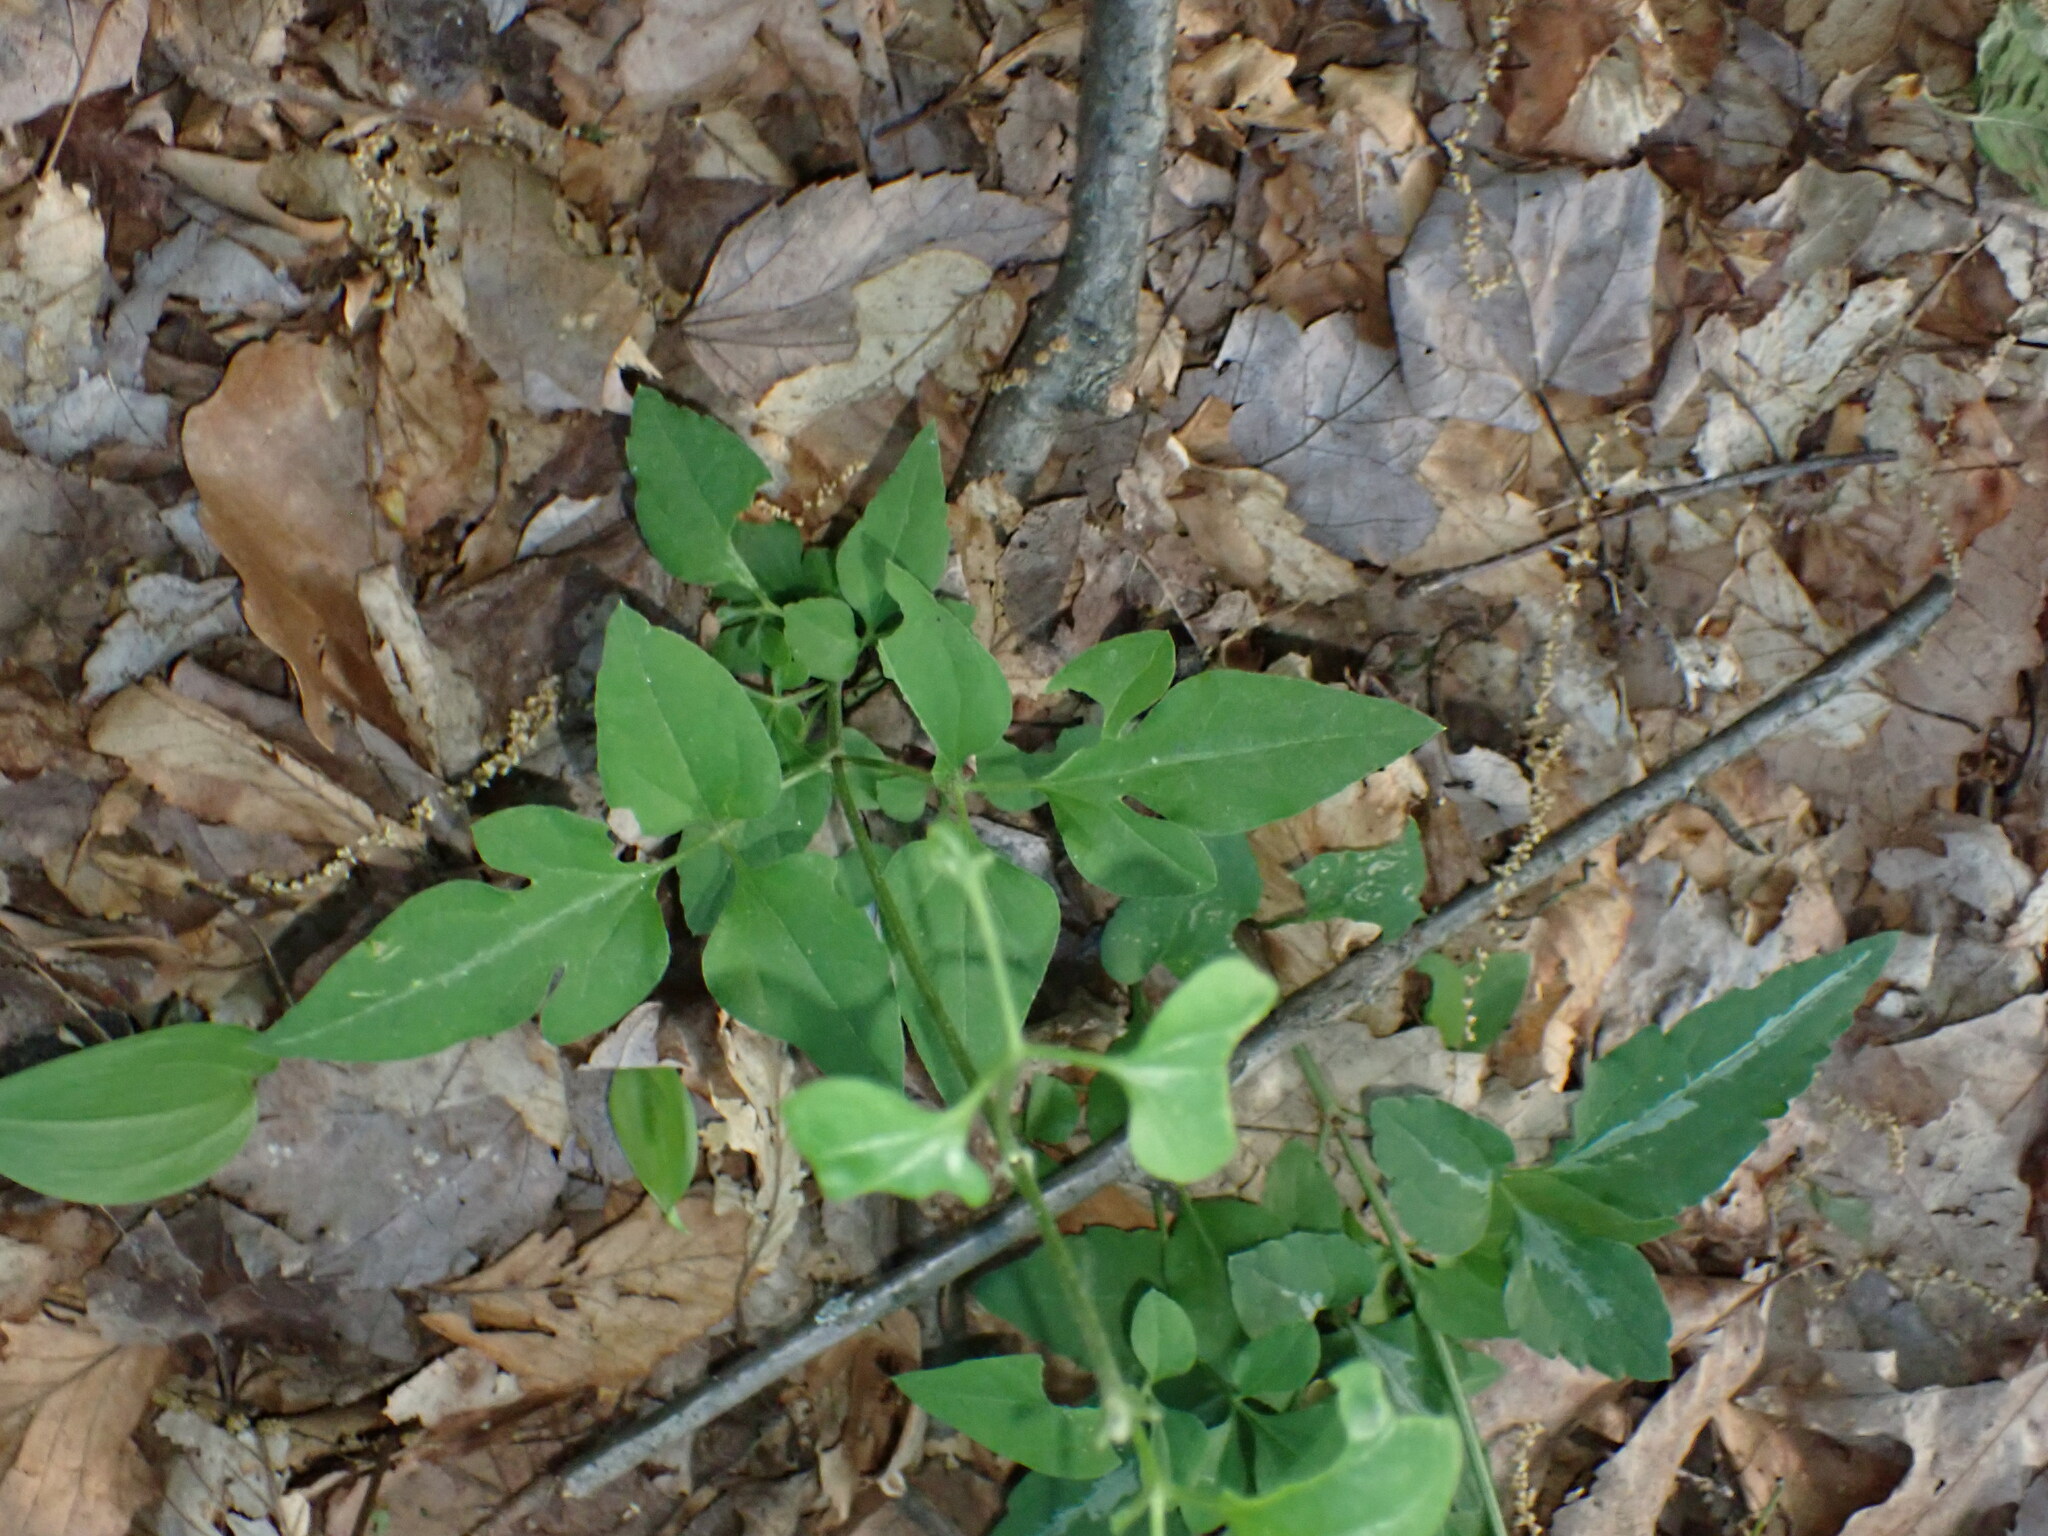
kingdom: Plantae
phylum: Tracheophyta
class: Magnoliopsida
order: Ranunculales
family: Ranunculaceae
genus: Clematis
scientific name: Clematis terniflora
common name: Sweet autumn clematis
